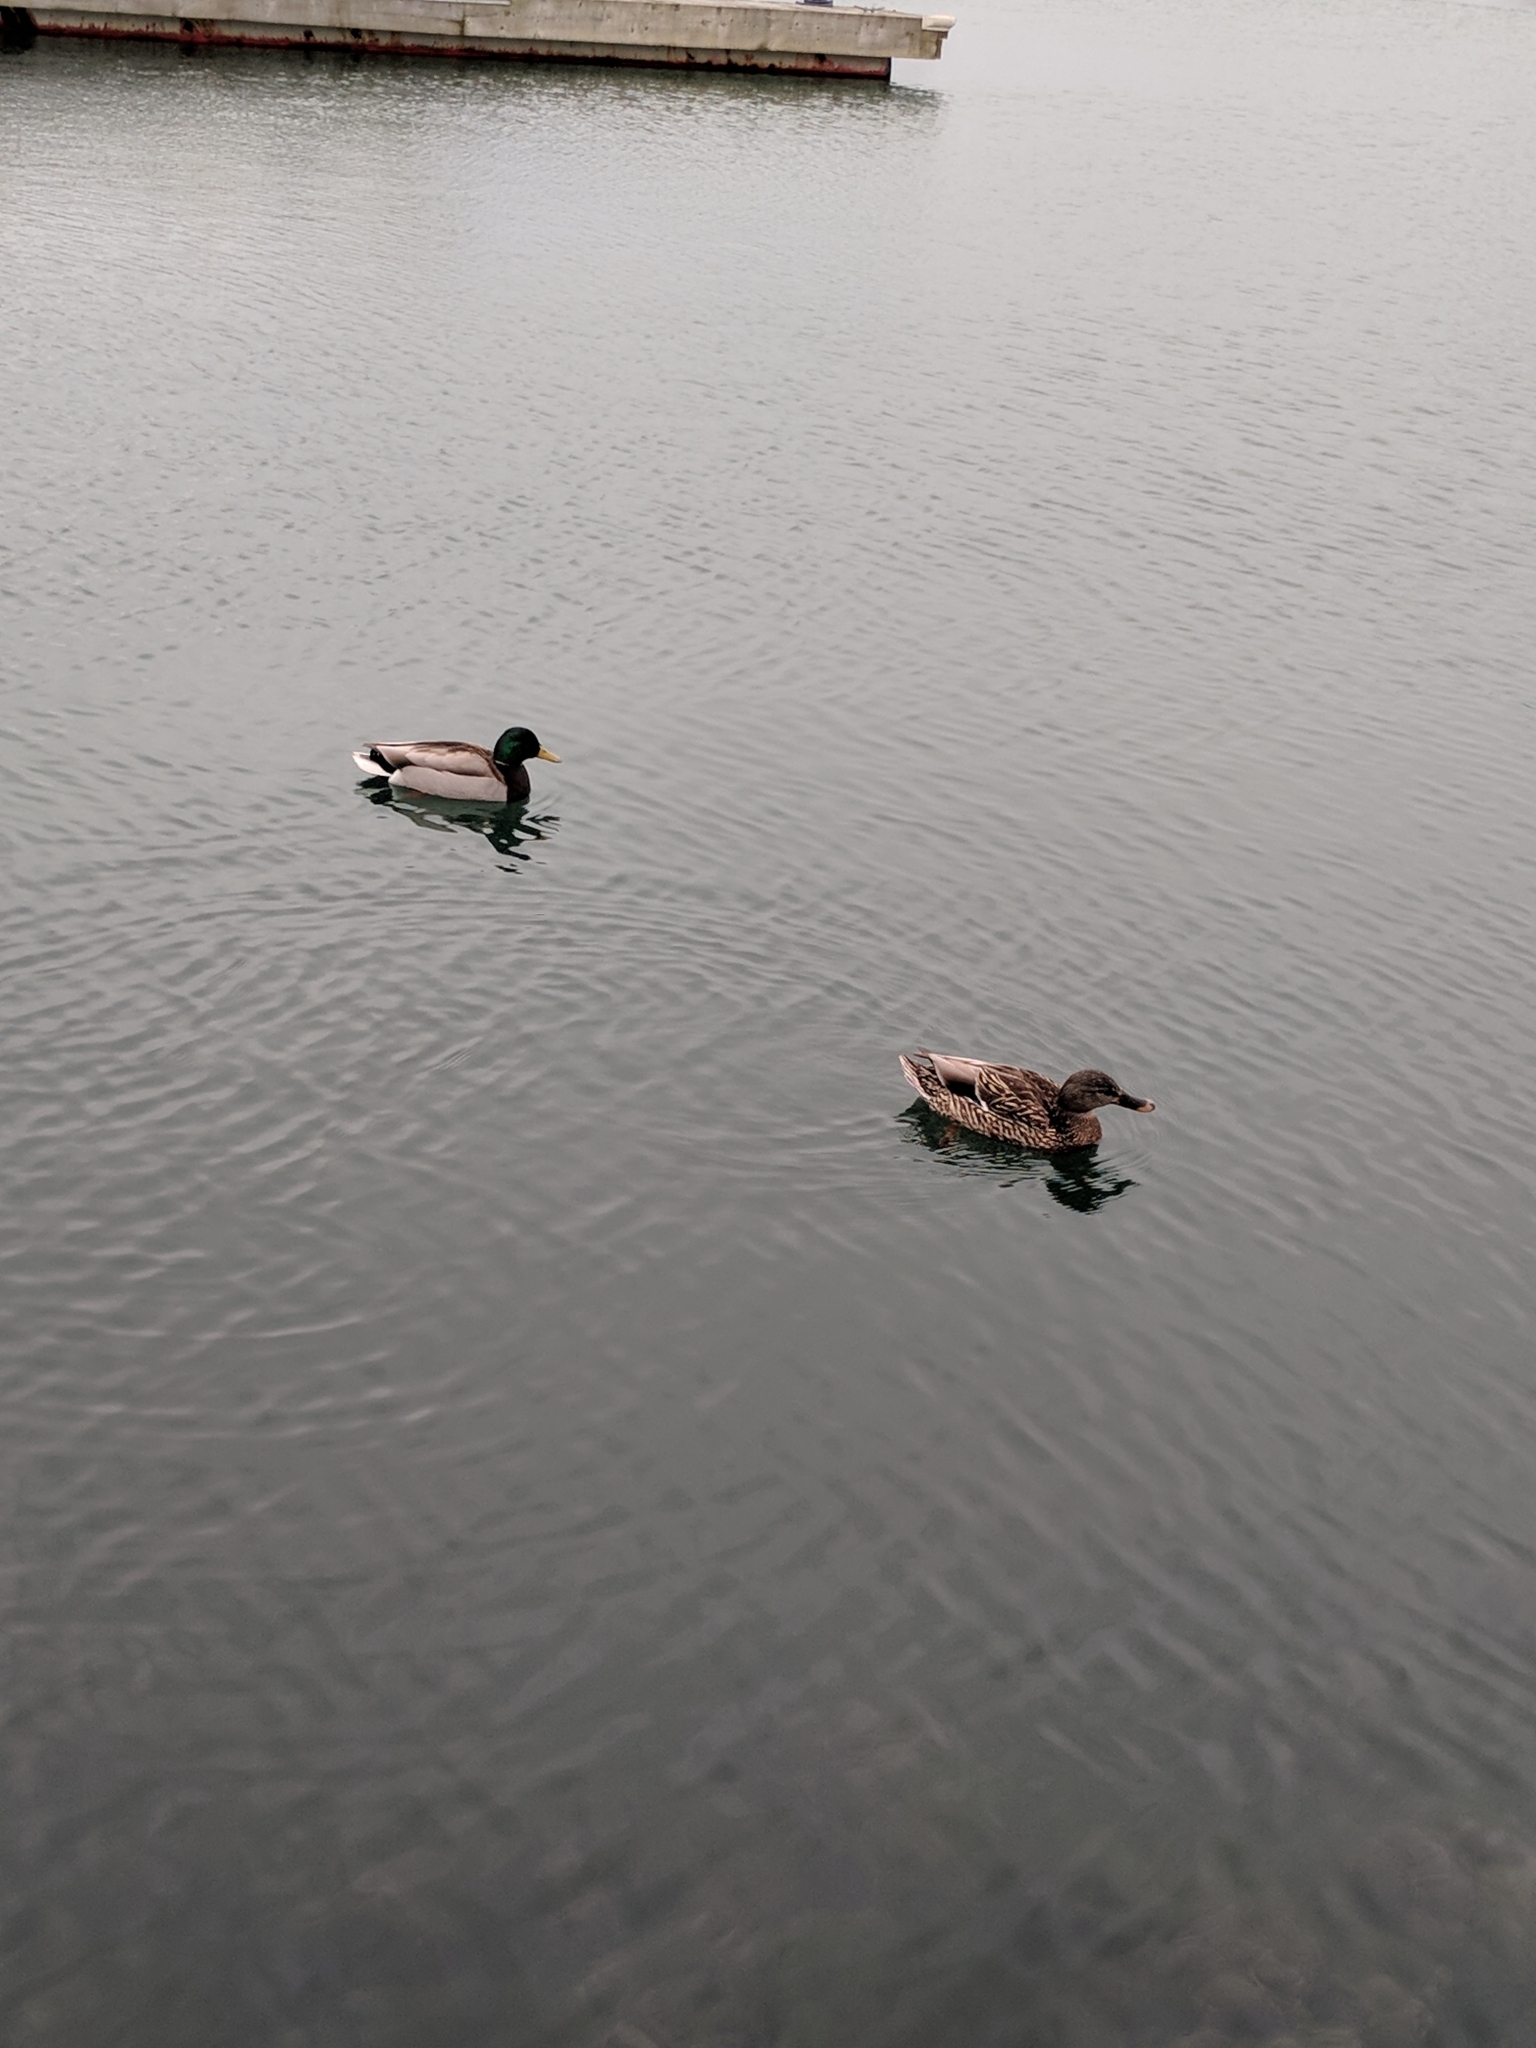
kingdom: Animalia
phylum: Chordata
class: Aves
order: Anseriformes
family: Anatidae
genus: Anas
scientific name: Anas platyrhynchos
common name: Mallard
